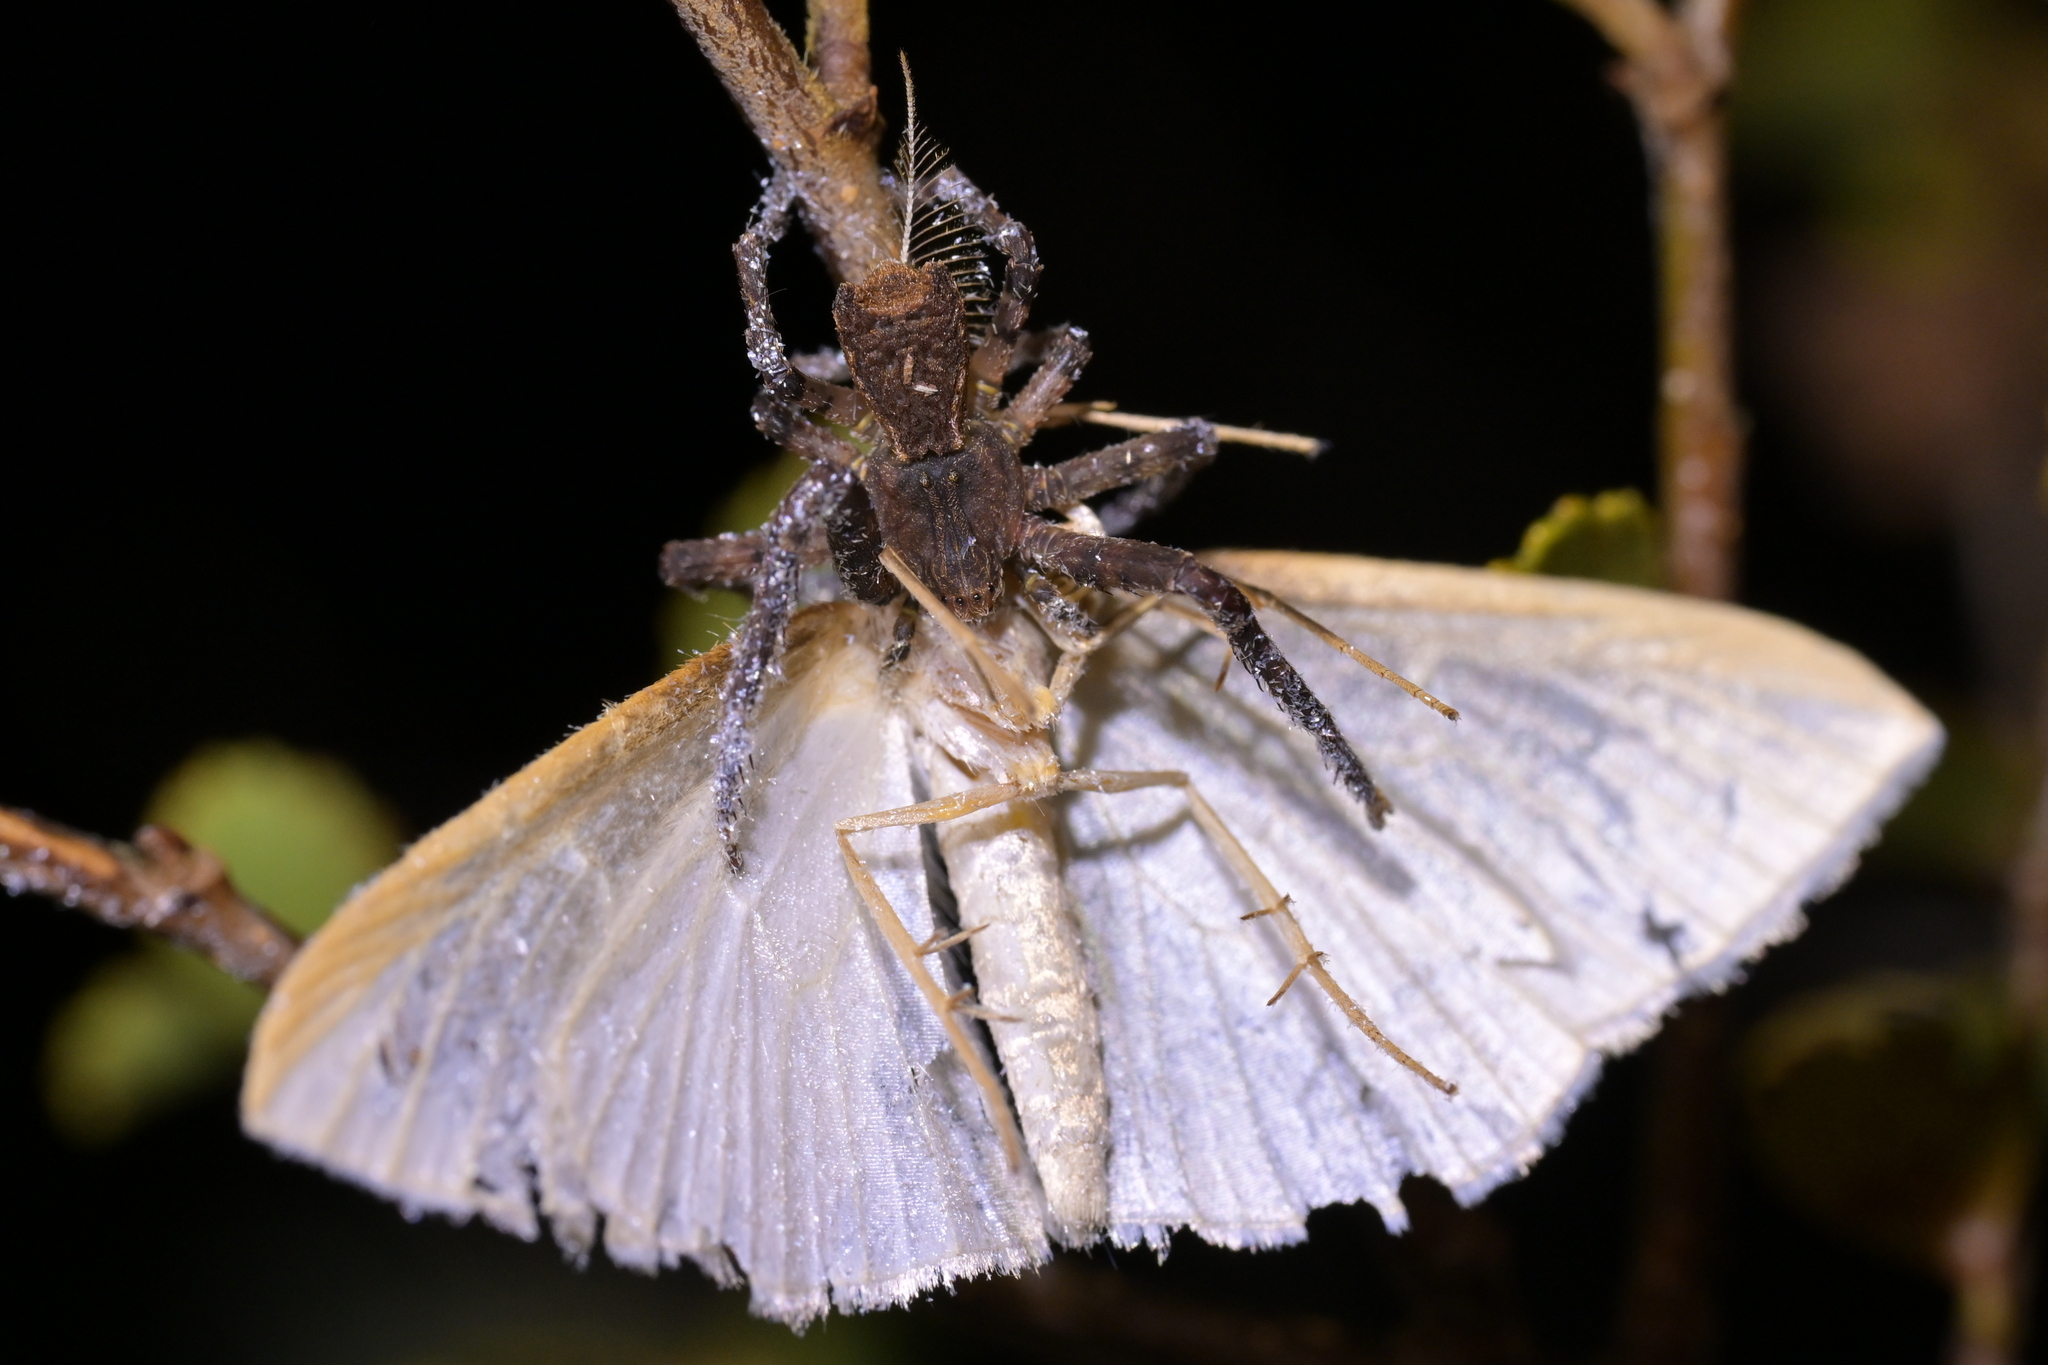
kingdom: Animalia
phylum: Arthropoda
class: Arachnida
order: Araneae
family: Thomisidae
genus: Sidymella
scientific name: Sidymella angularis
